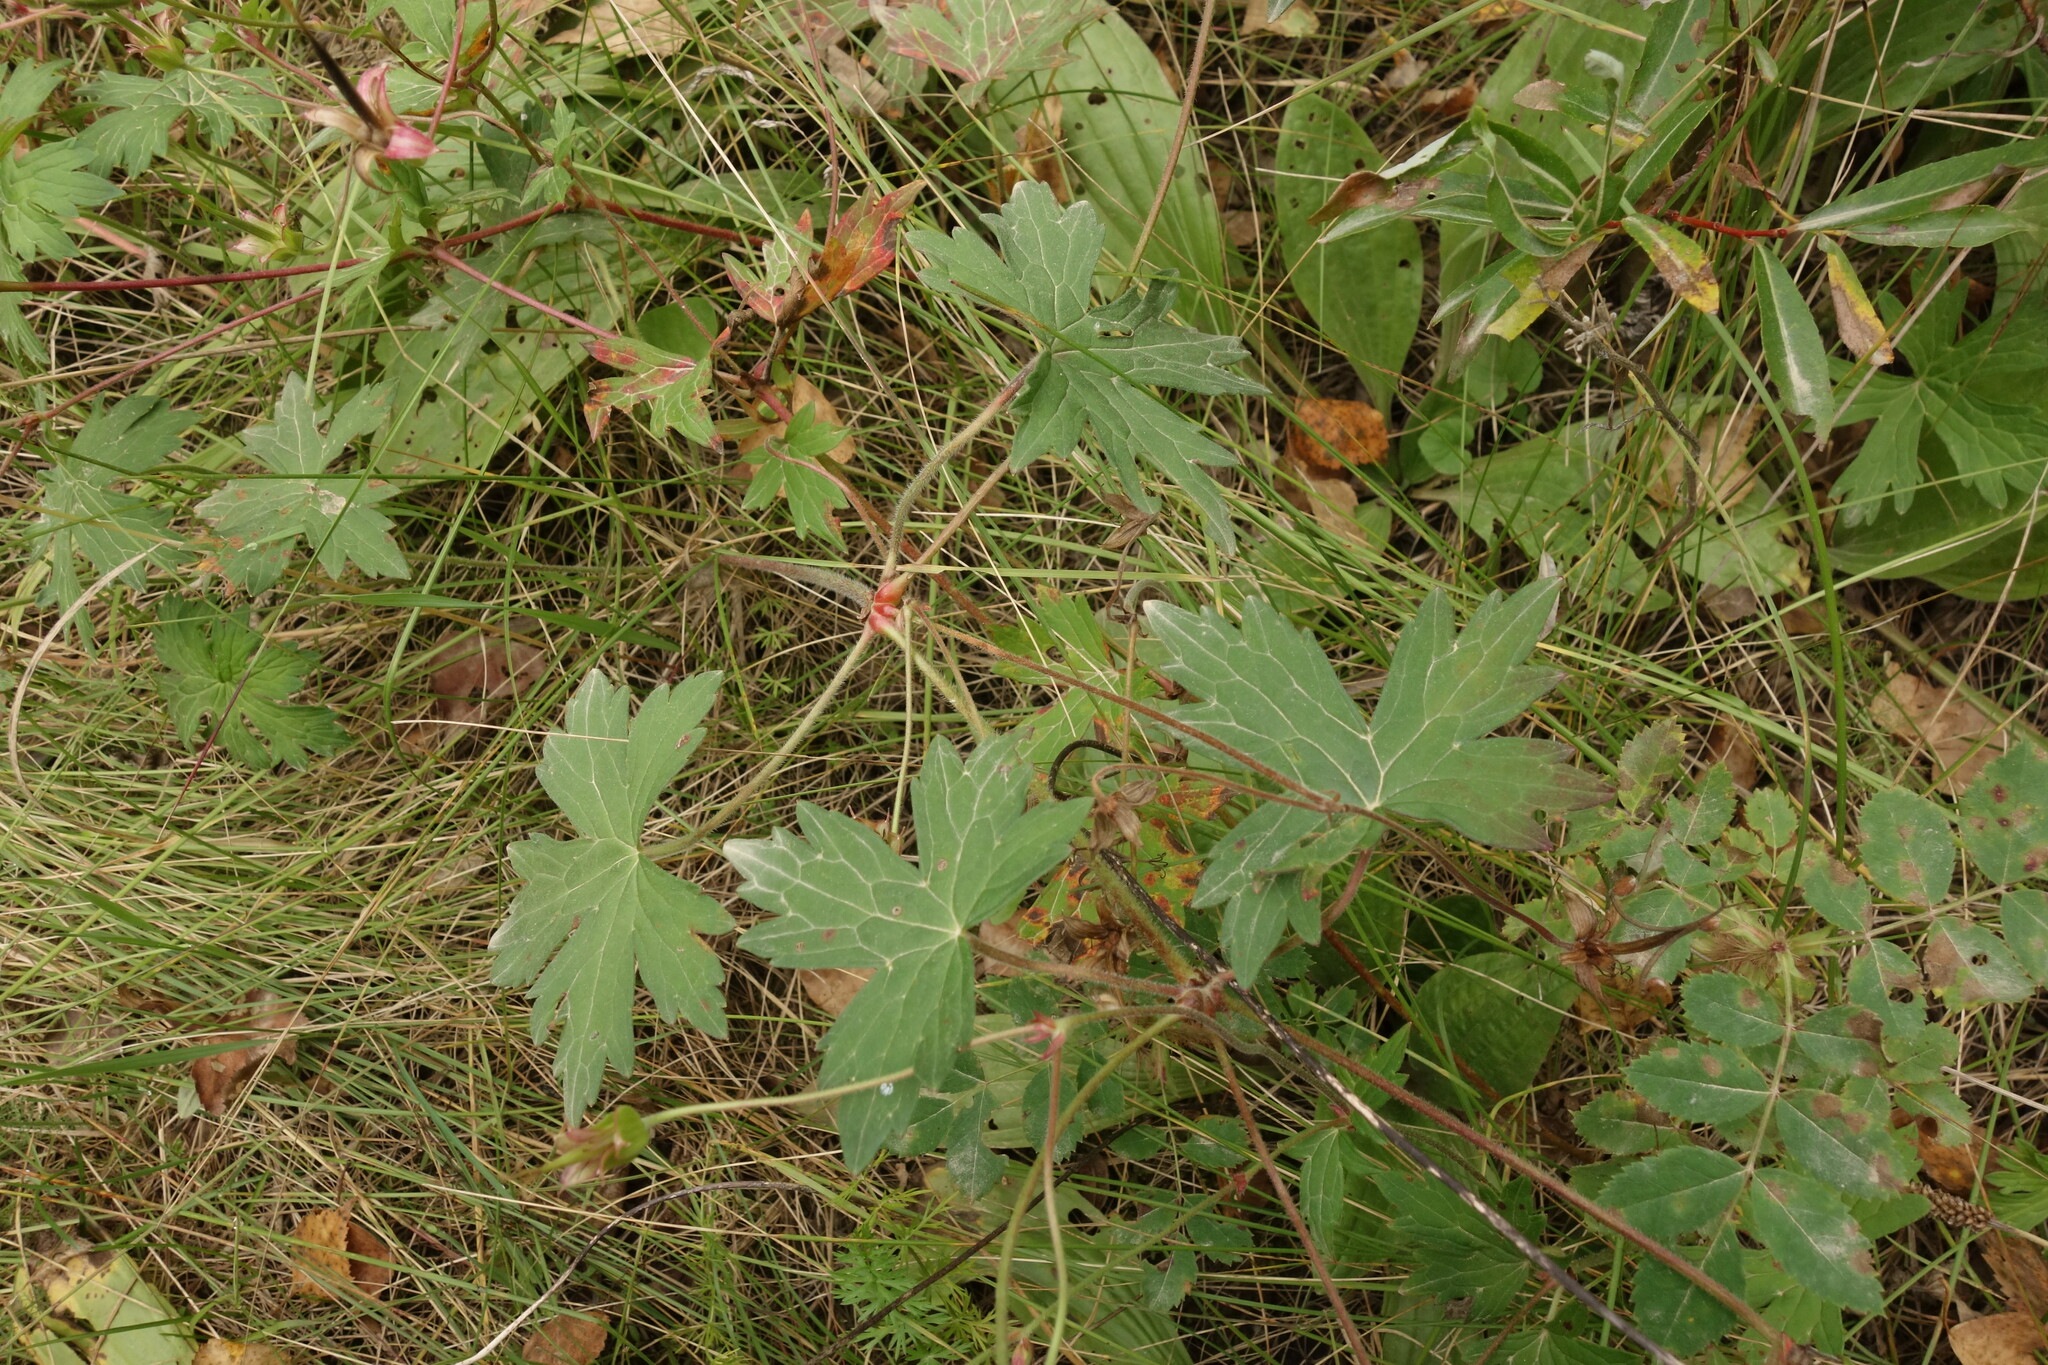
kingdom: Plantae
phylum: Tracheophyta
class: Magnoliopsida
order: Geraniales
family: Geraniaceae
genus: Geranium
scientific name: Geranium wlassovianum
